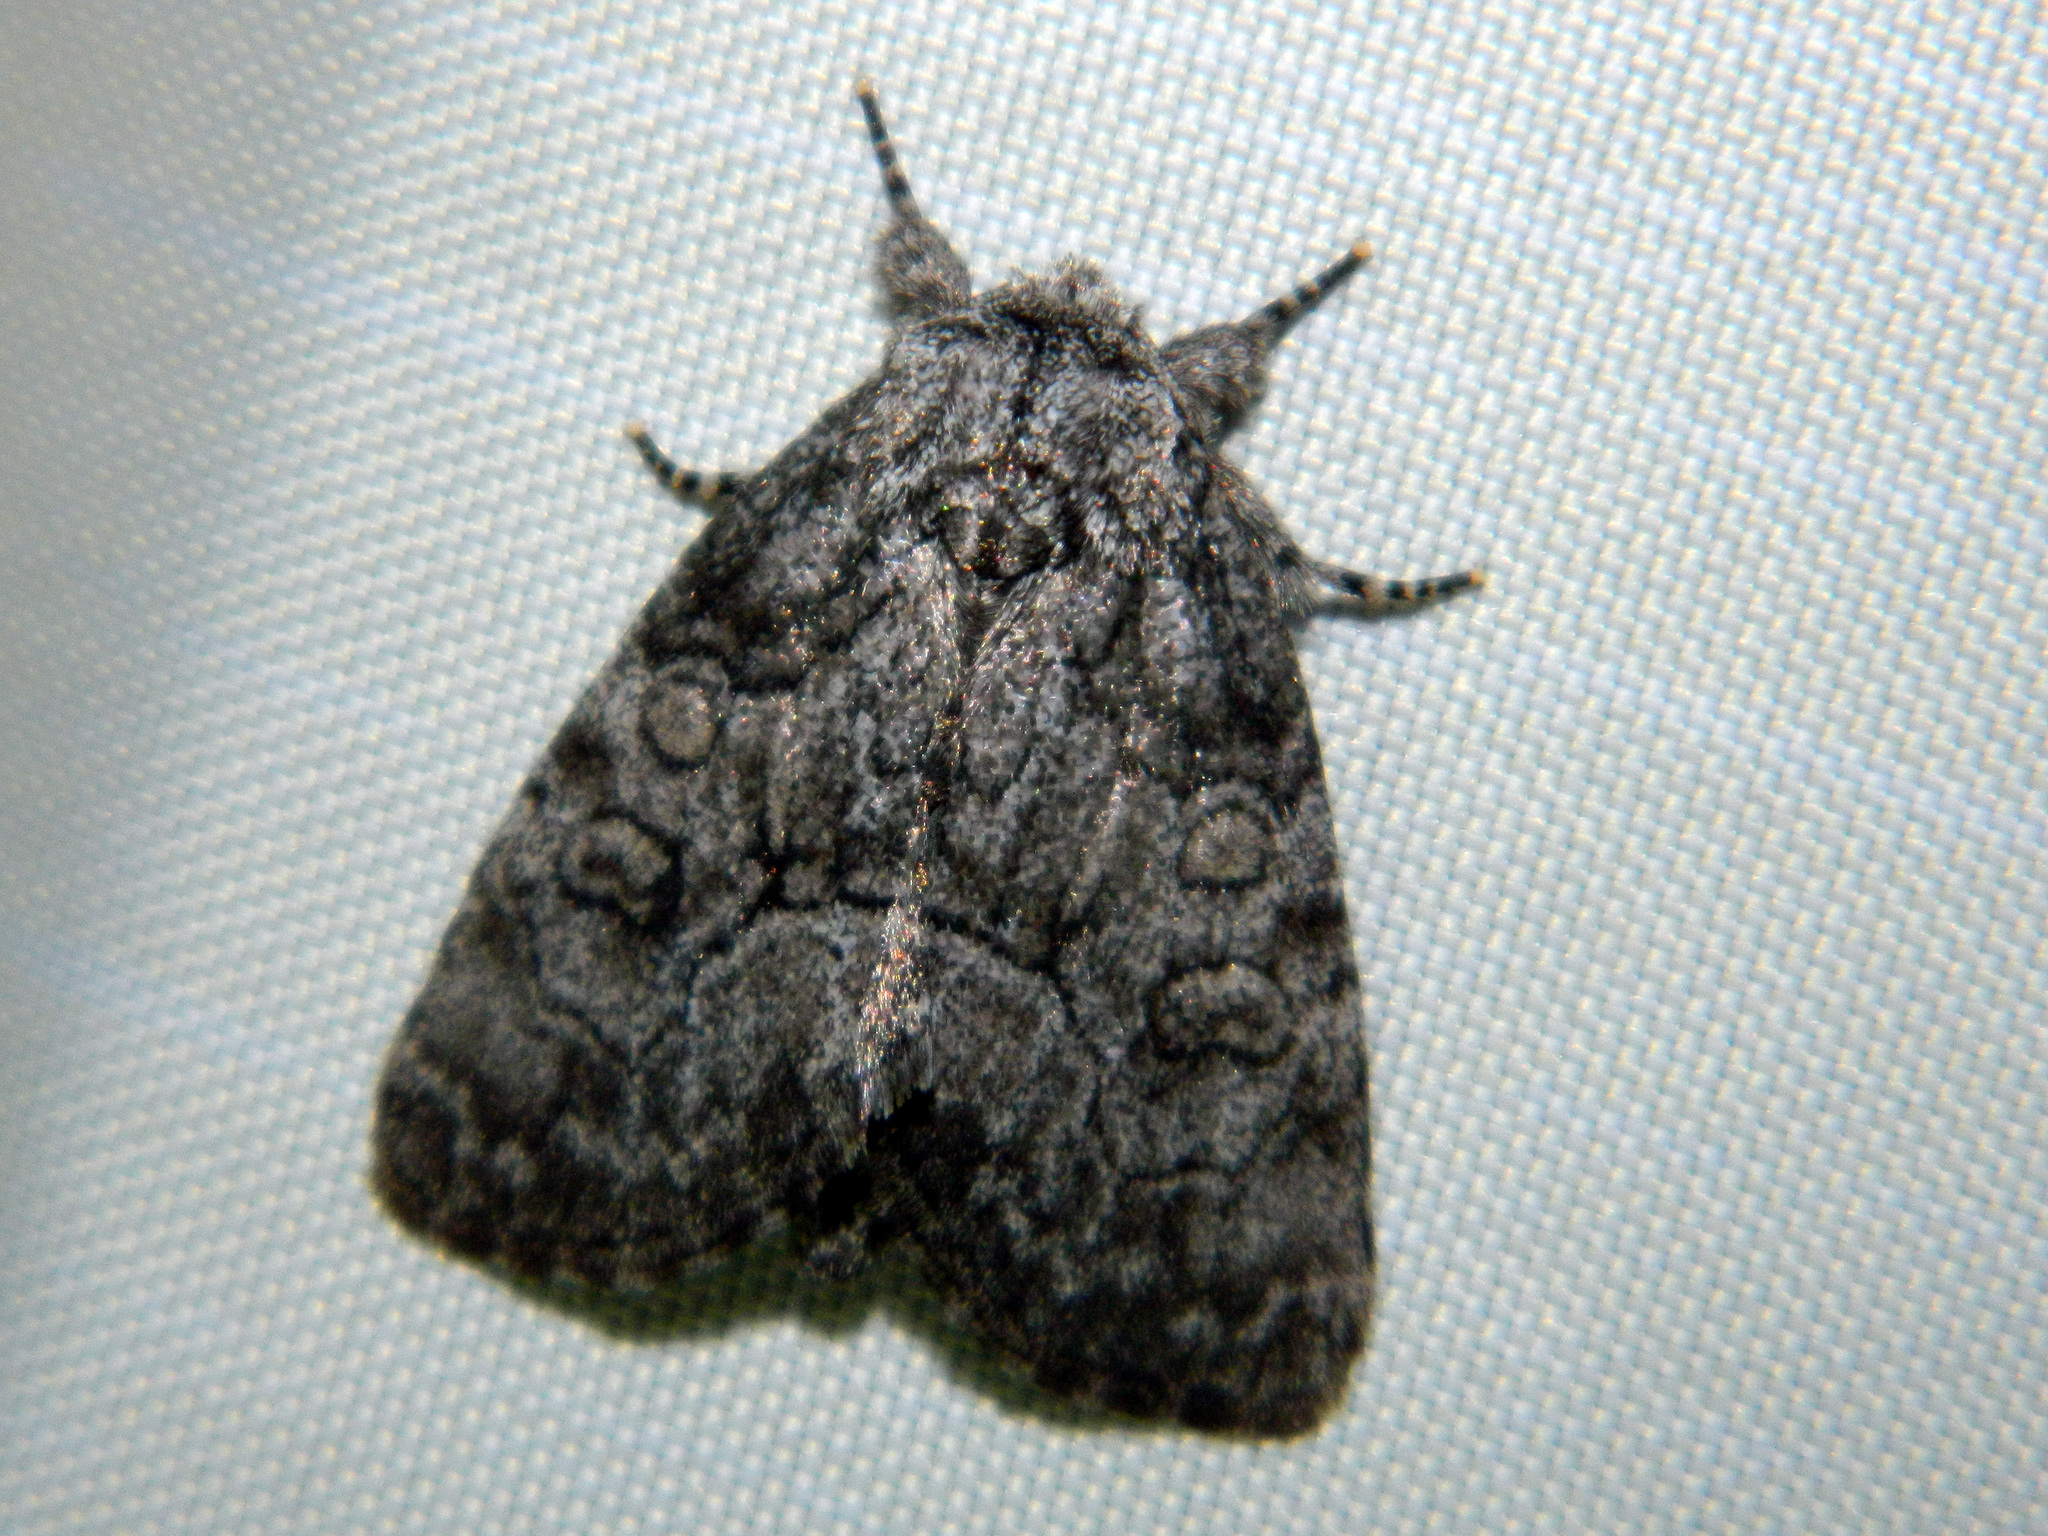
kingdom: Animalia
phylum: Arthropoda
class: Insecta
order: Lepidoptera
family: Noctuidae
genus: Raphia
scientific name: Raphia frater
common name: Brother
